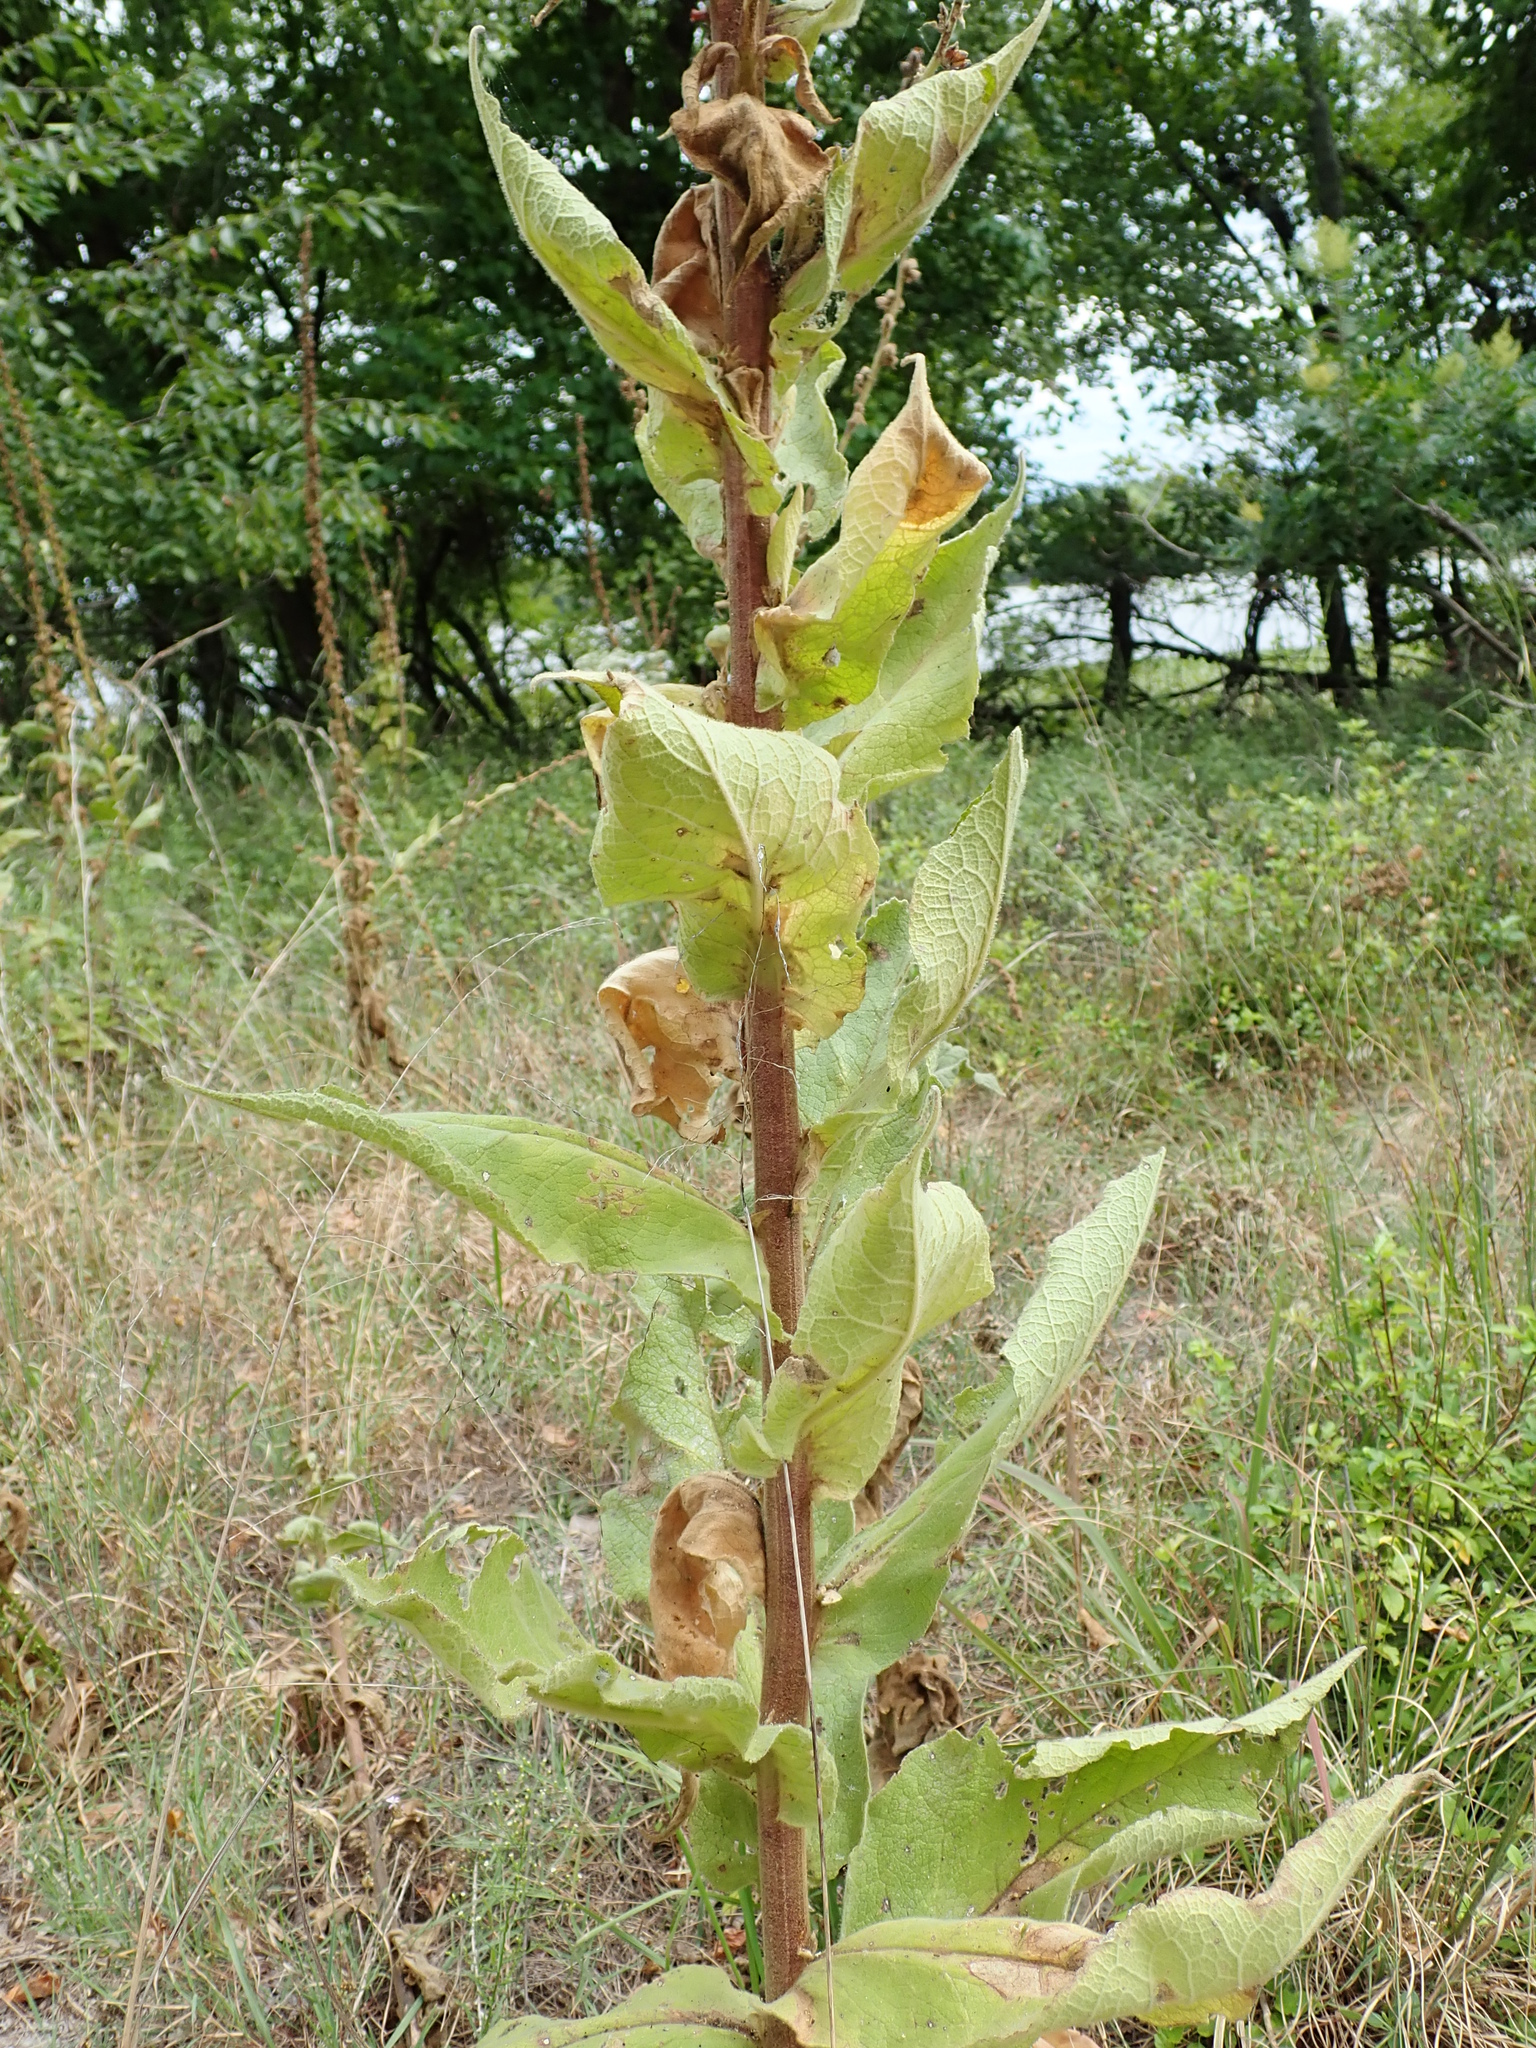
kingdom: Plantae
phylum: Tracheophyta
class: Magnoliopsida
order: Lamiales
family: Scrophulariaceae
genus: Verbascum
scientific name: Verbascum phlomoides
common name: Orange mullein
